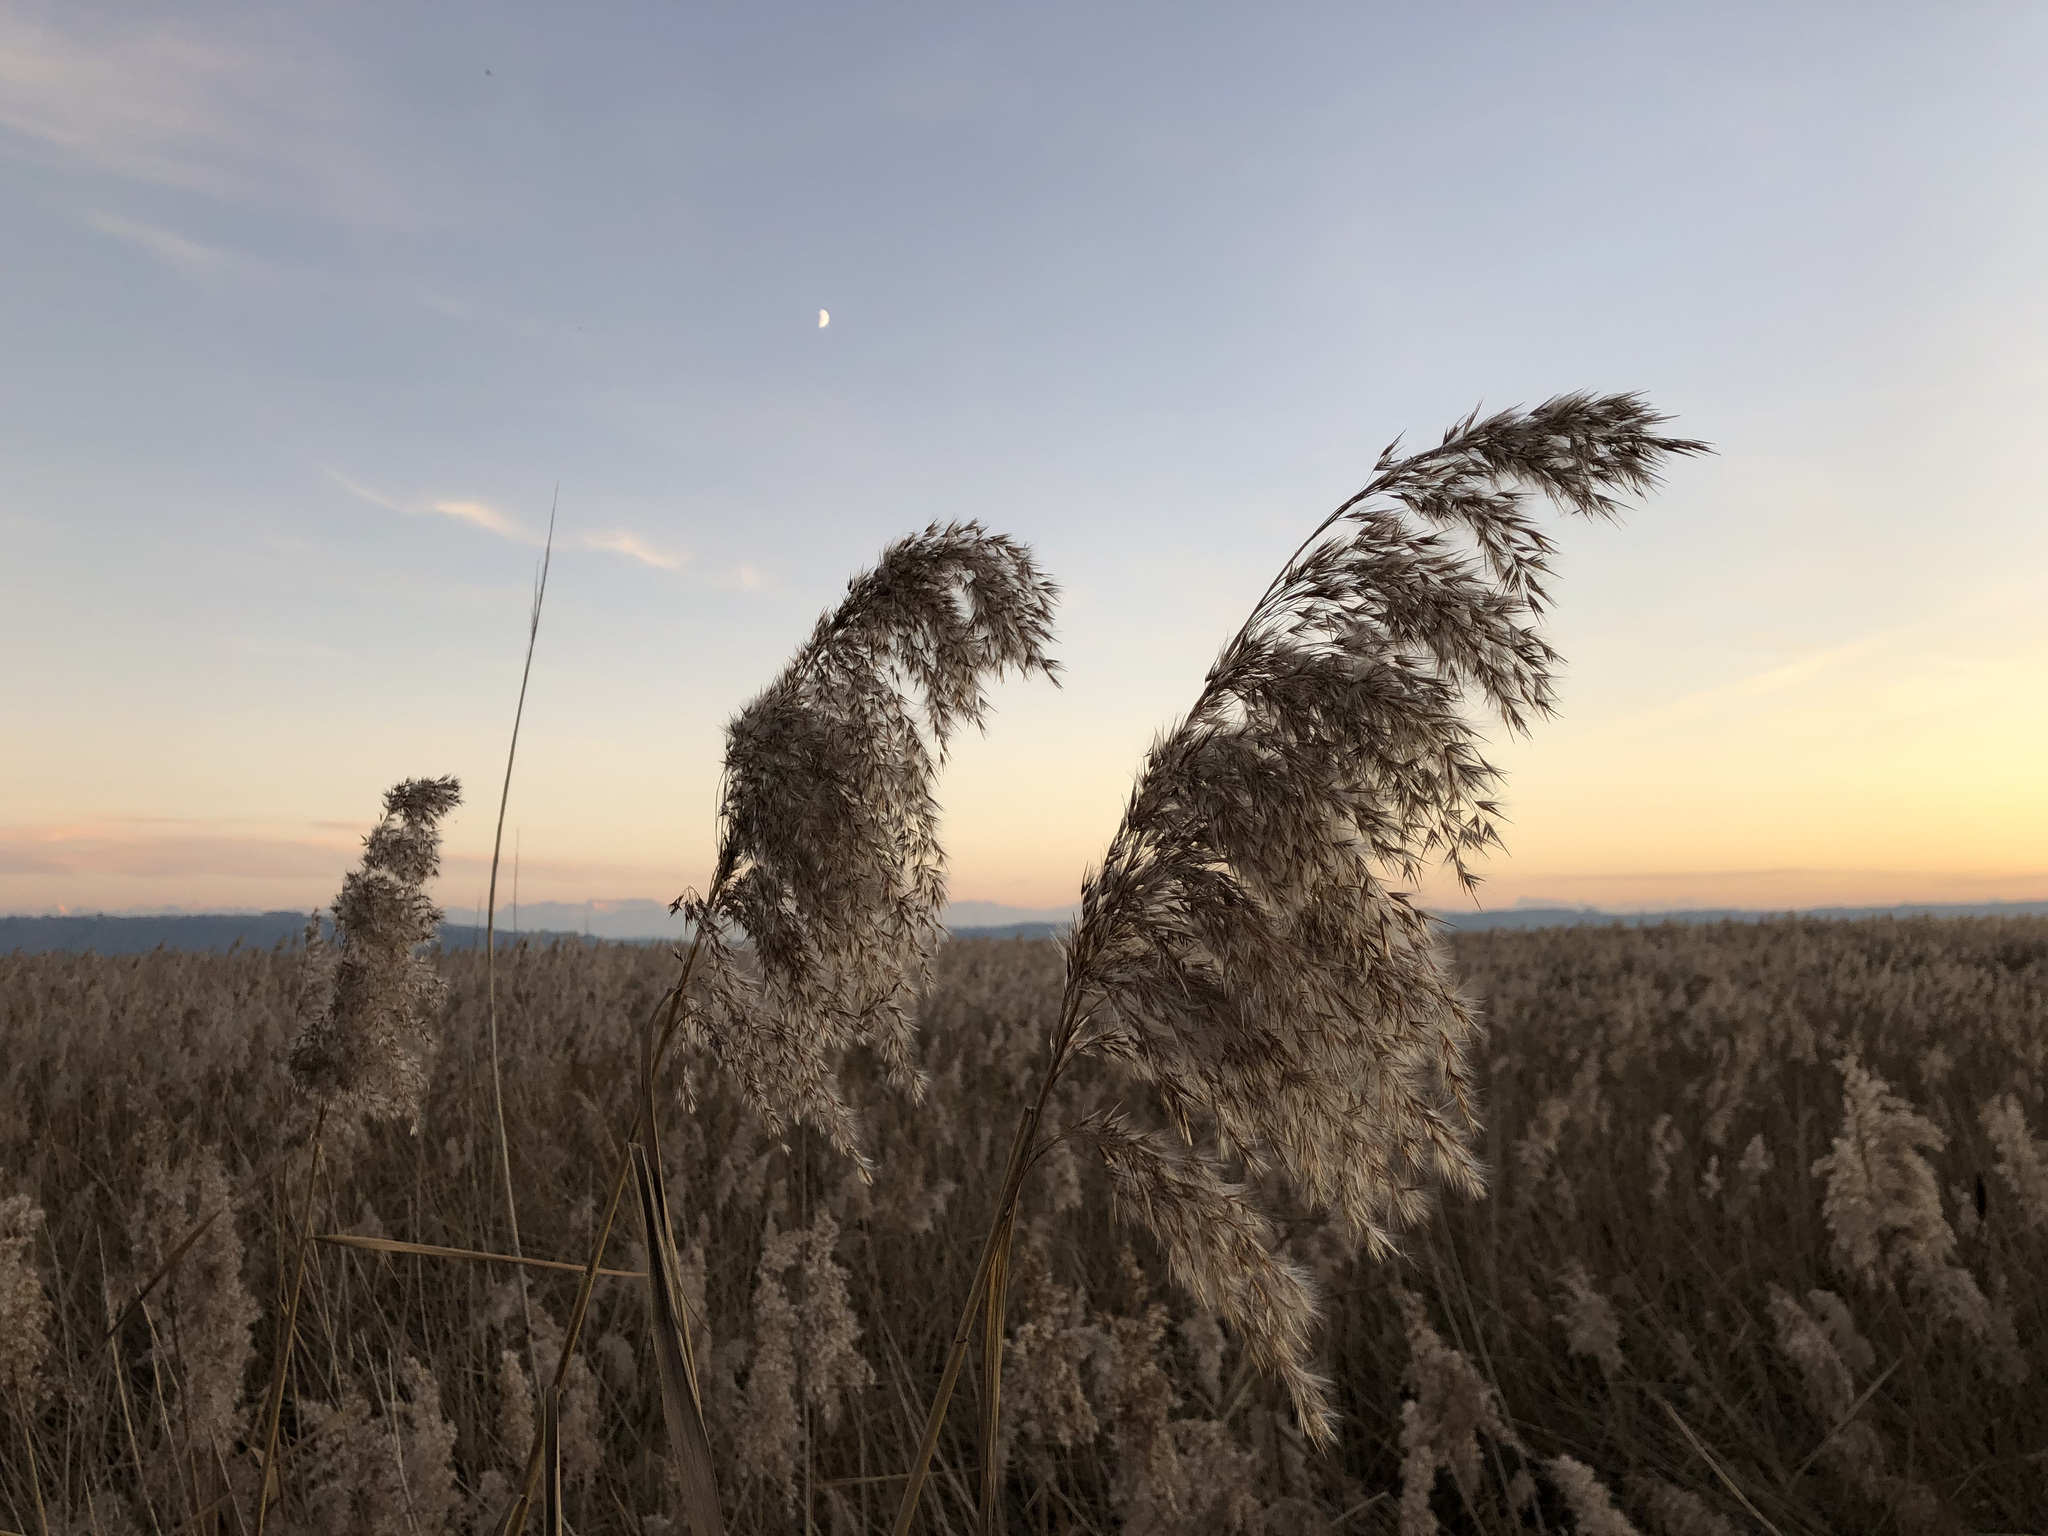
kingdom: Plantae
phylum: Tracheophyta
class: Liliopsida
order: Poales
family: Poaceae
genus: Phragmites
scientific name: Phragmites australis
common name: Common reed
